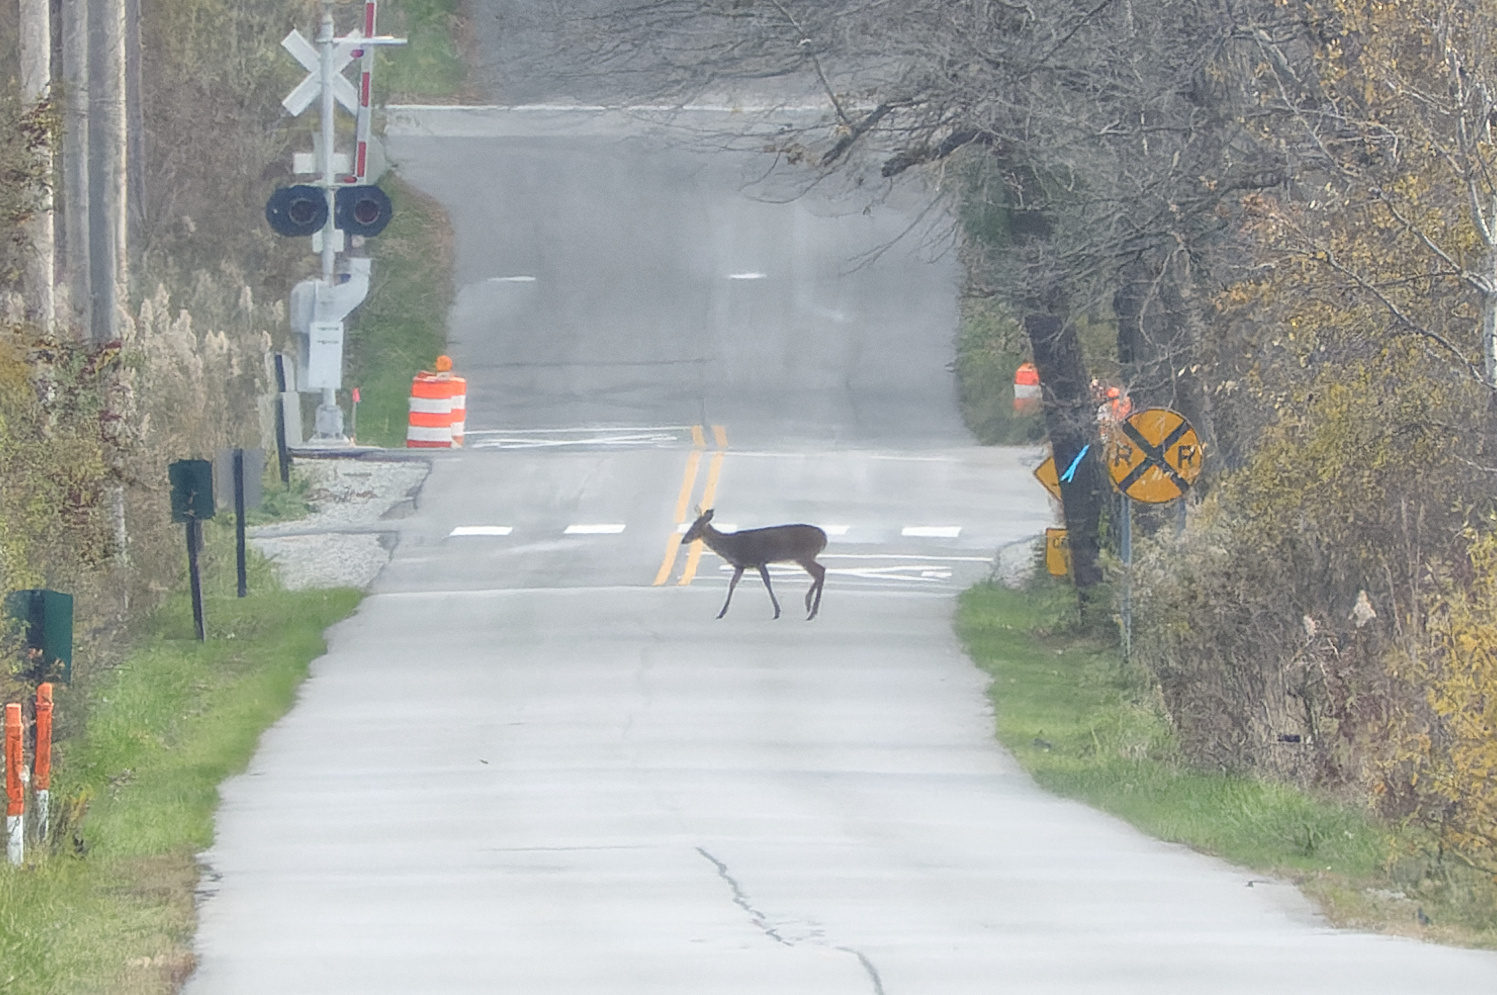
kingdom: Animalia
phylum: Chordata
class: Mammalia
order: Artiodactyla
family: Cervidae
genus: Odocoileus
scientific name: Odocoileus virginianus
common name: White-tailed deer
